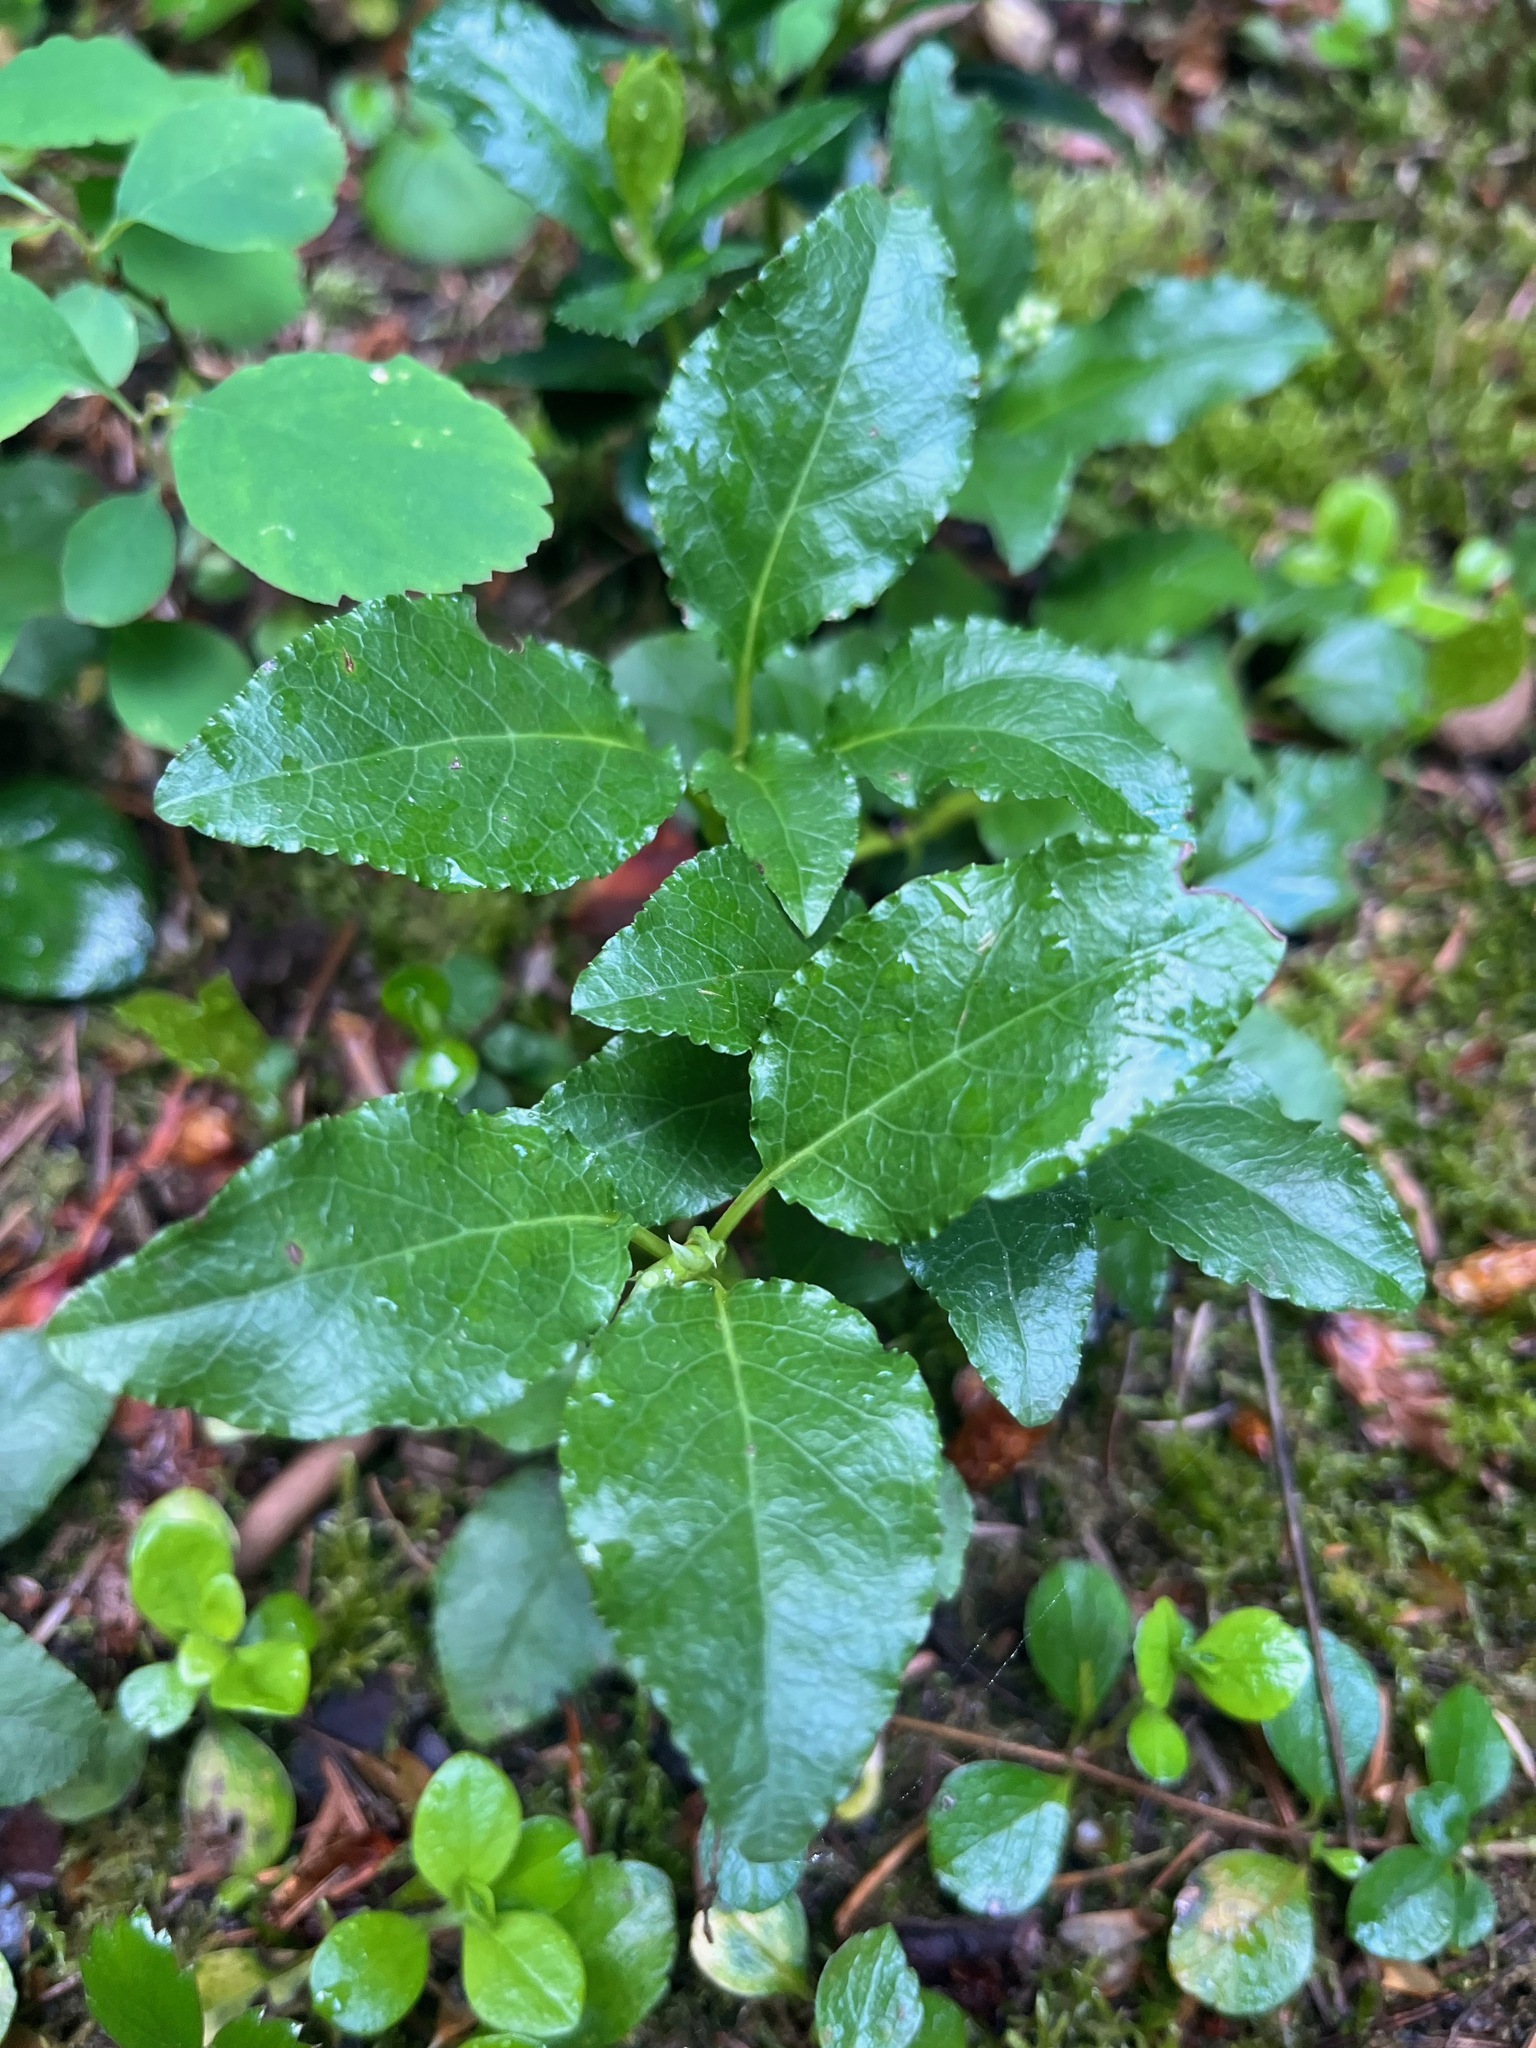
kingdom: Plantae
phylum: Tracheophyta
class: Magnoliopsida
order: Ericales
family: Ericaceae
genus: Orthilia
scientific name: Orthilia secunda
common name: One-sided orthilia
